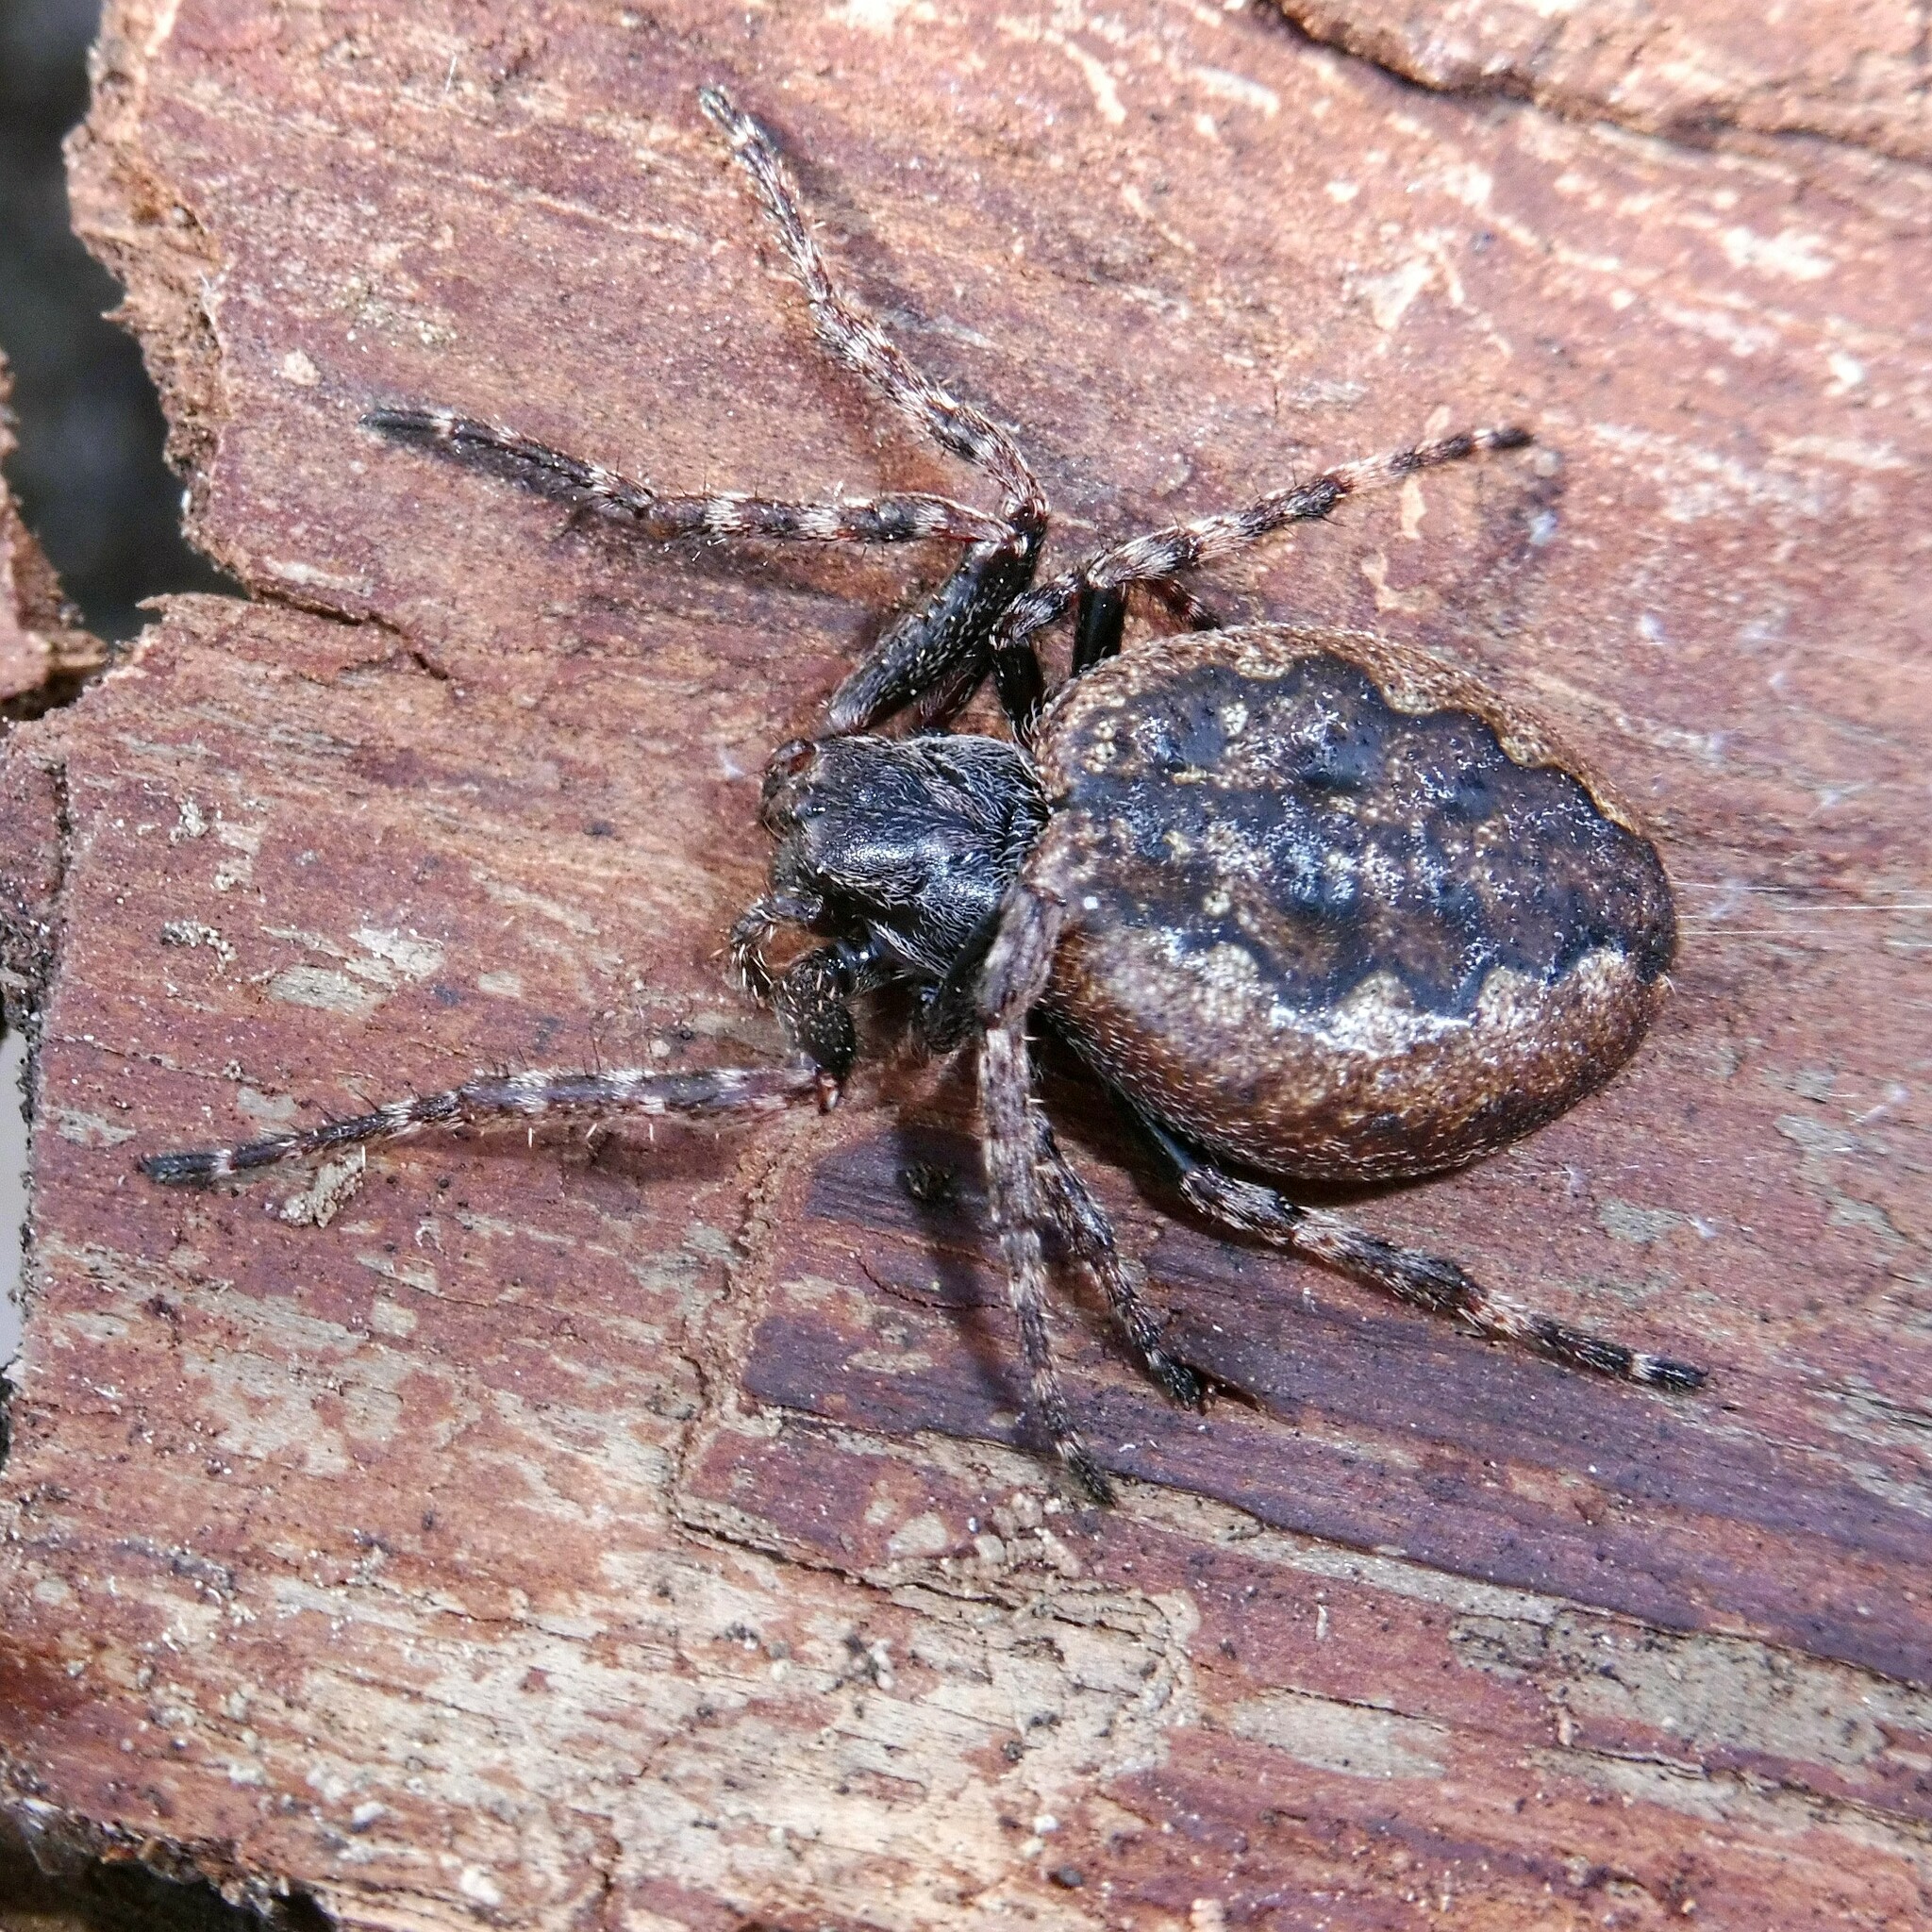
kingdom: Animalia
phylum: Arthropoda
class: Arachnida
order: Araneae
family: Araneidae
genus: Nuctenea
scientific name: Nuctenea umbratica
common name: Toad spider
